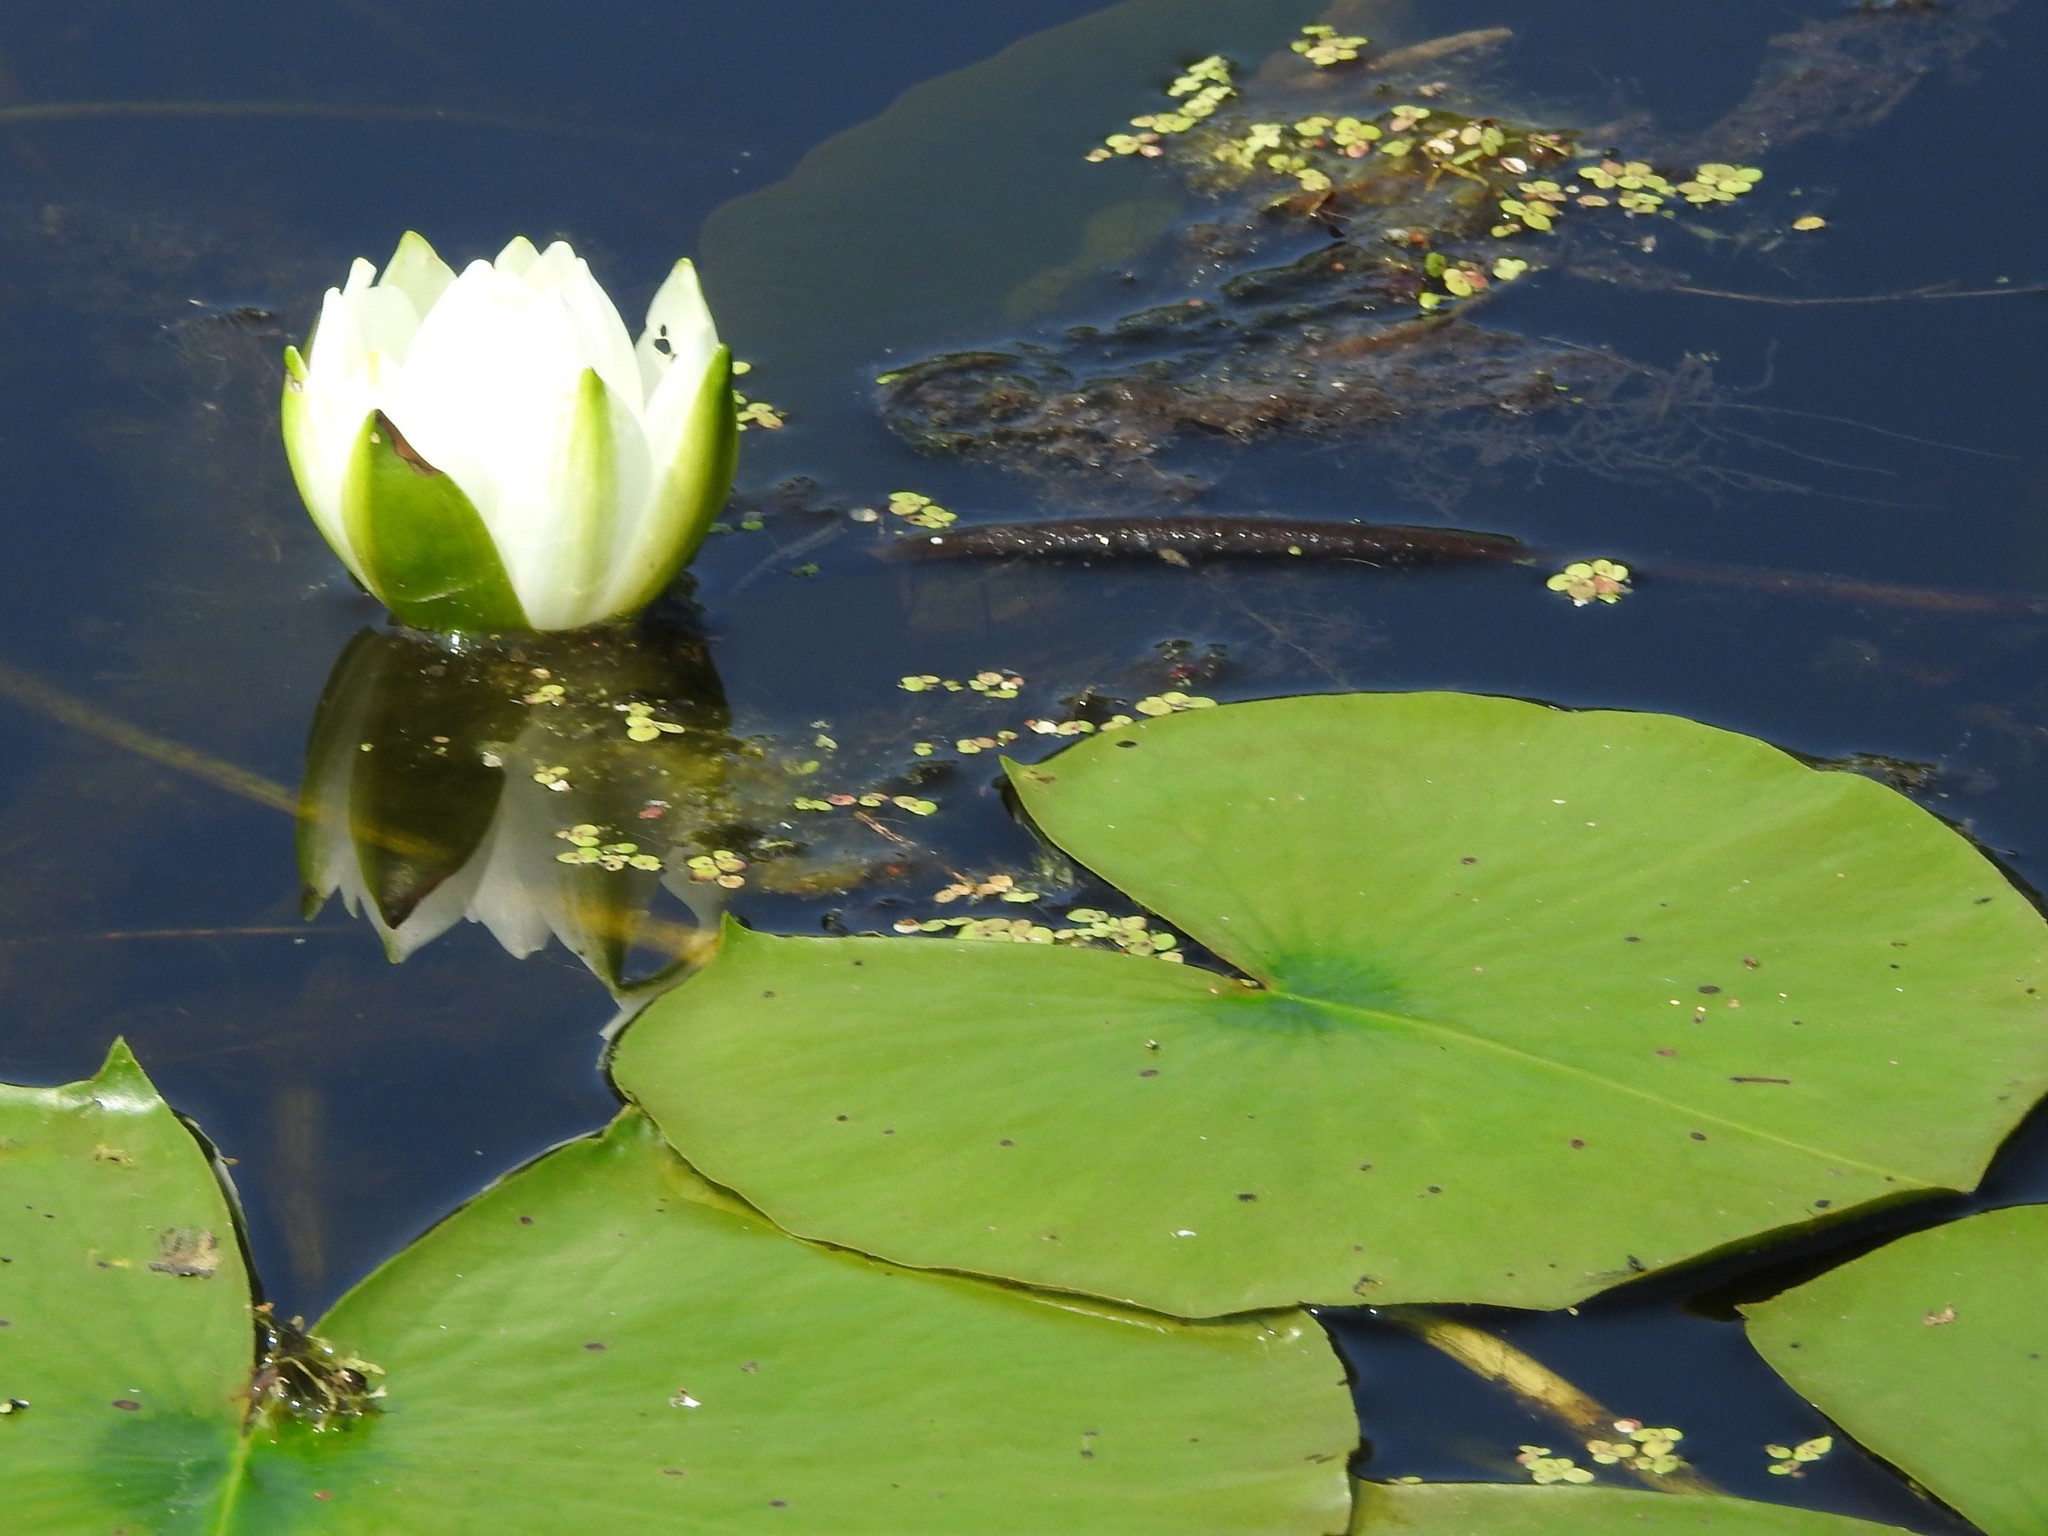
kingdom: Plantae
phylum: Tracheophyta
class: Magnoliopsida
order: Nymphaeales
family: Nymphaeaceae
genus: Nymphaea
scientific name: Nymphaea odorata
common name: Fragrant water-lily
